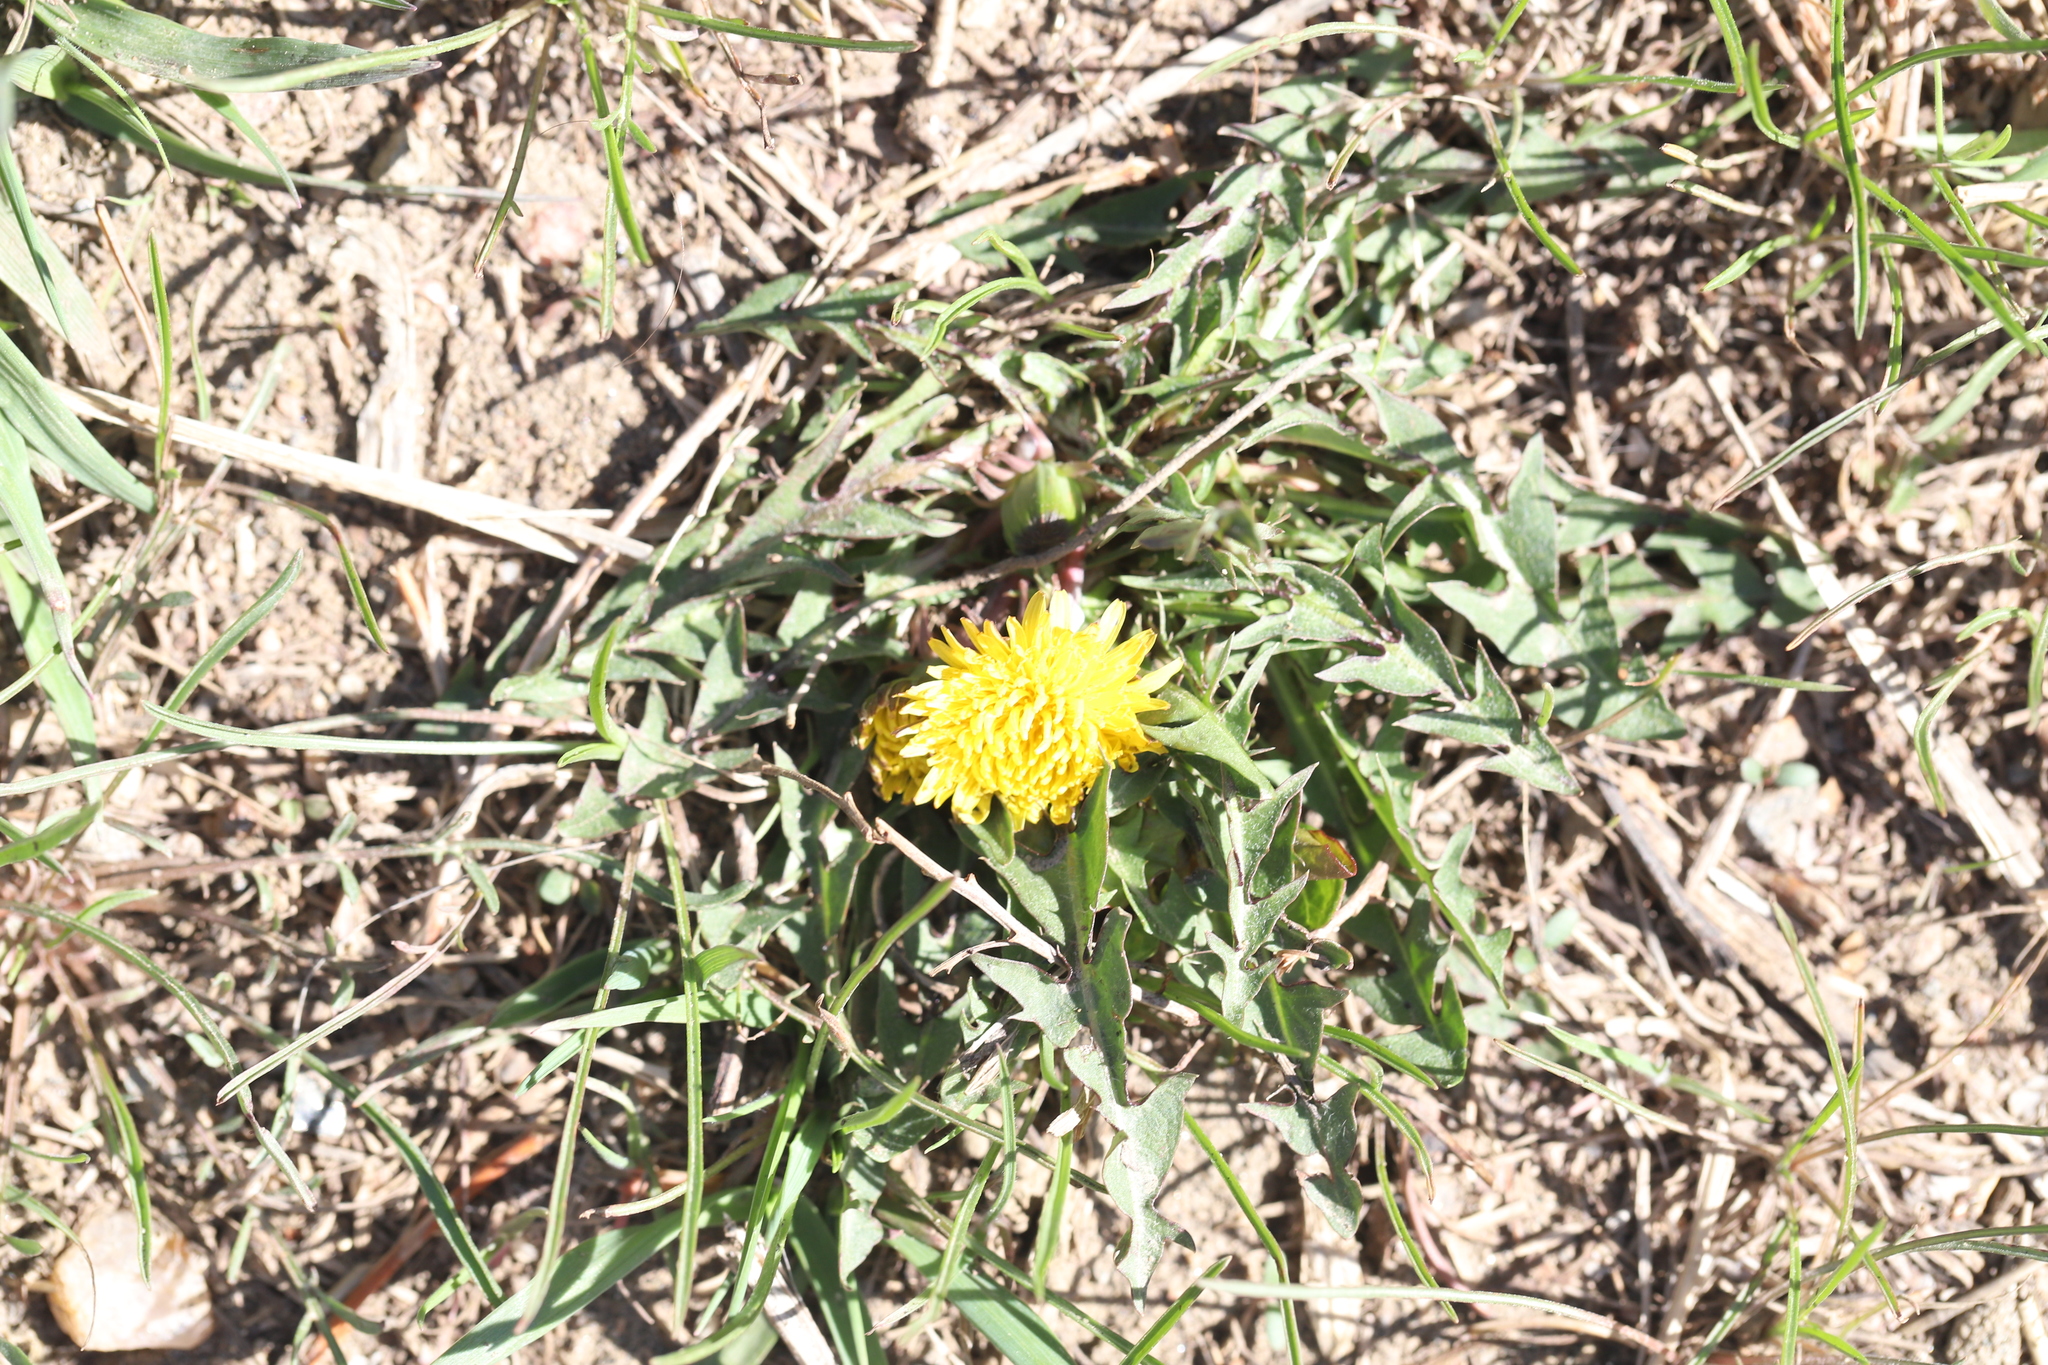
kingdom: Plantae
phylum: Tracheophyta
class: Magnoliopsida
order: Asterales
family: Asteraceae
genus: Taraxacum
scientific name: Taraxacum officinale
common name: Common dandelion
